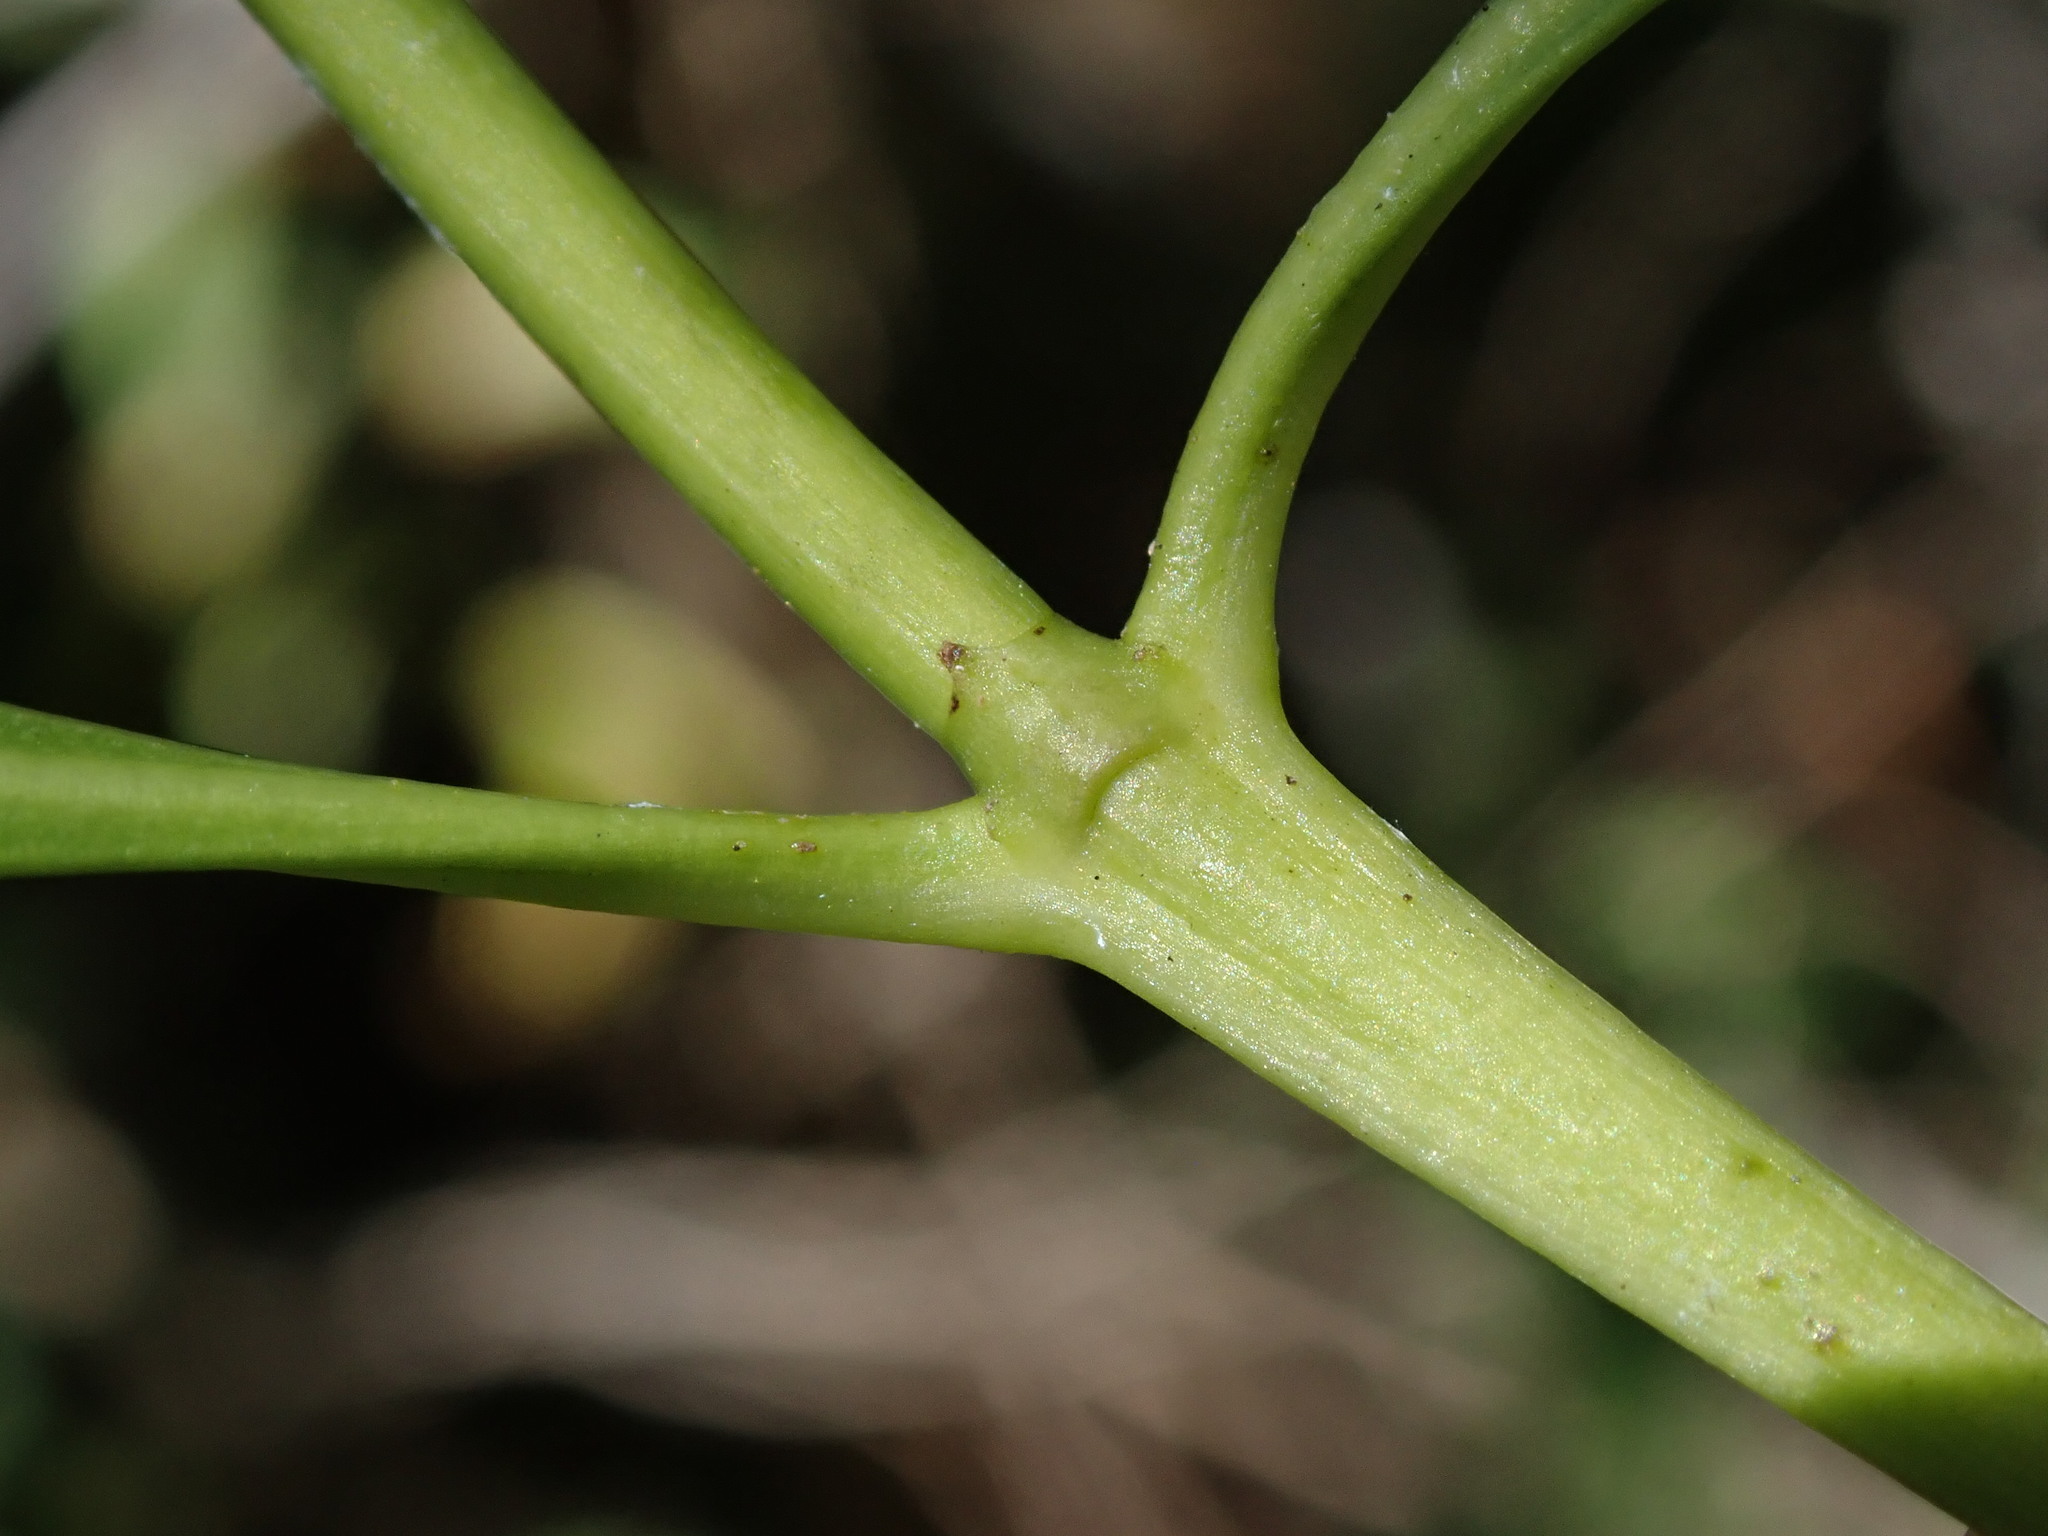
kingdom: Plantae
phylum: Tracheophyta
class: Magnoliopsida
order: Gentianales
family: Rubiaceae
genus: Erithalis
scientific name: Erithalis fruticosa
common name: Candlewood
